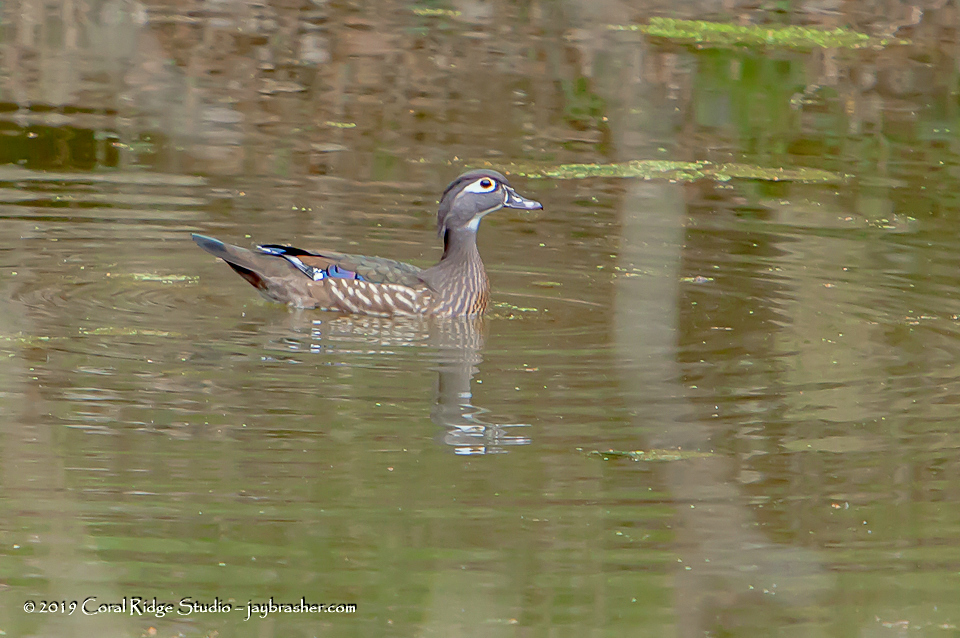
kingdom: Animalia
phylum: Chordata
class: Aves
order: Anseriformes
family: Anatidae
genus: Aix
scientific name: Aix sponsa
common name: Wood duck
